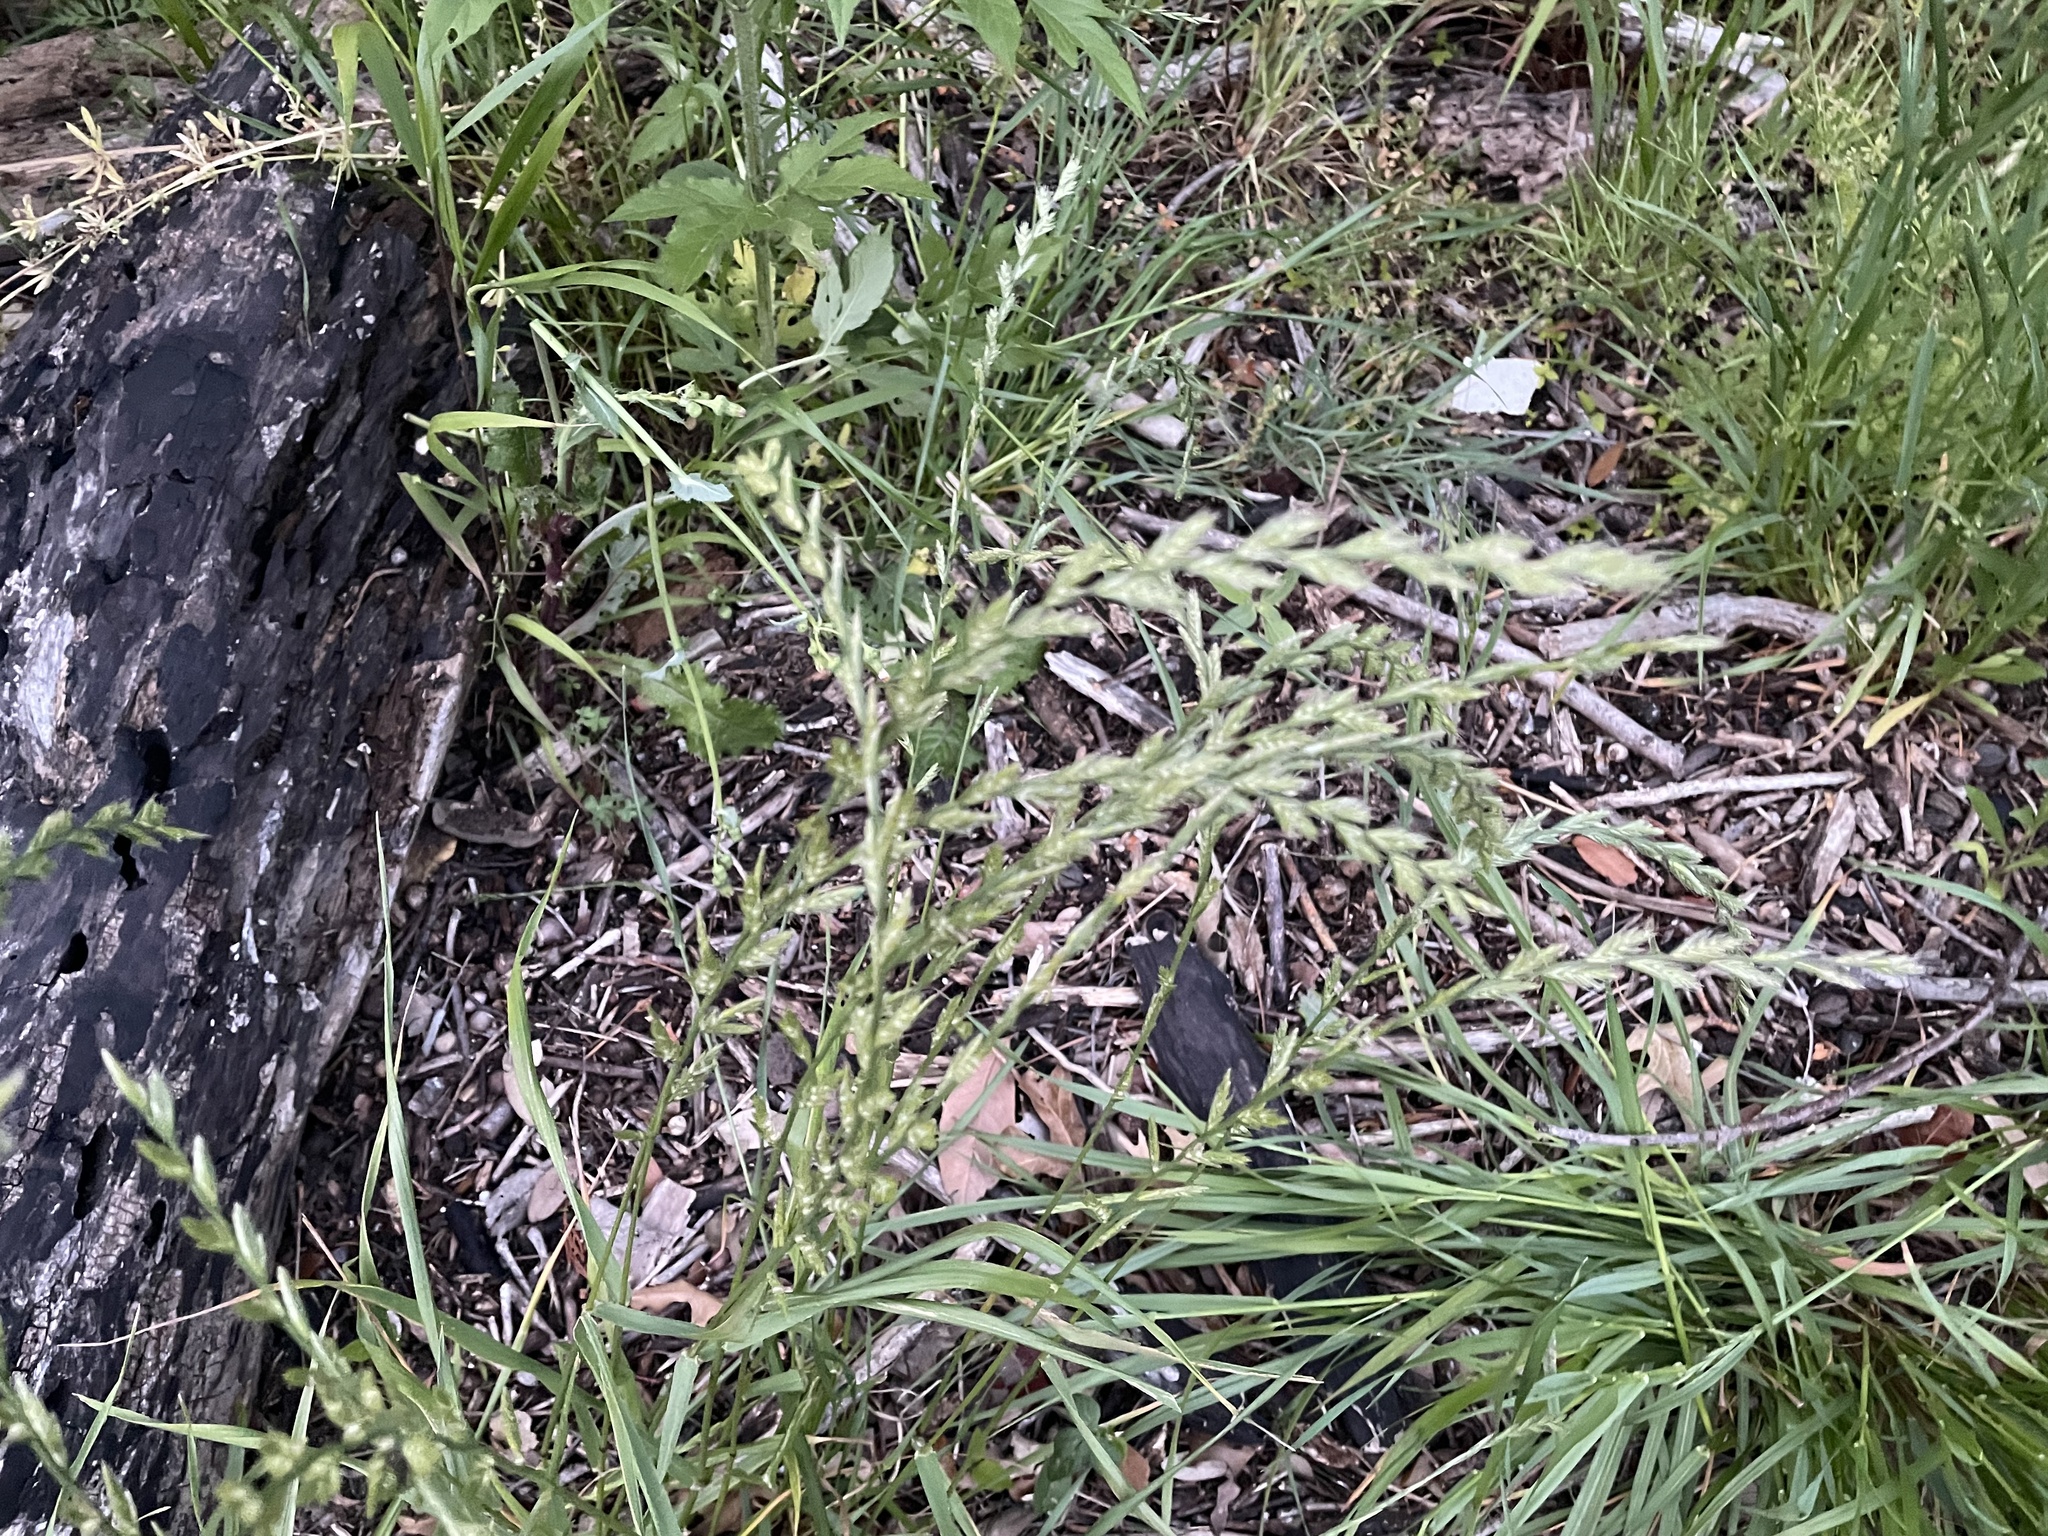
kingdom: Plantae
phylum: Tracheophyta
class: Liliopsida
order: Poales
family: Poaceae
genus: Lolium
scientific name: Lolium perenne
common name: Perennial ryegrass
